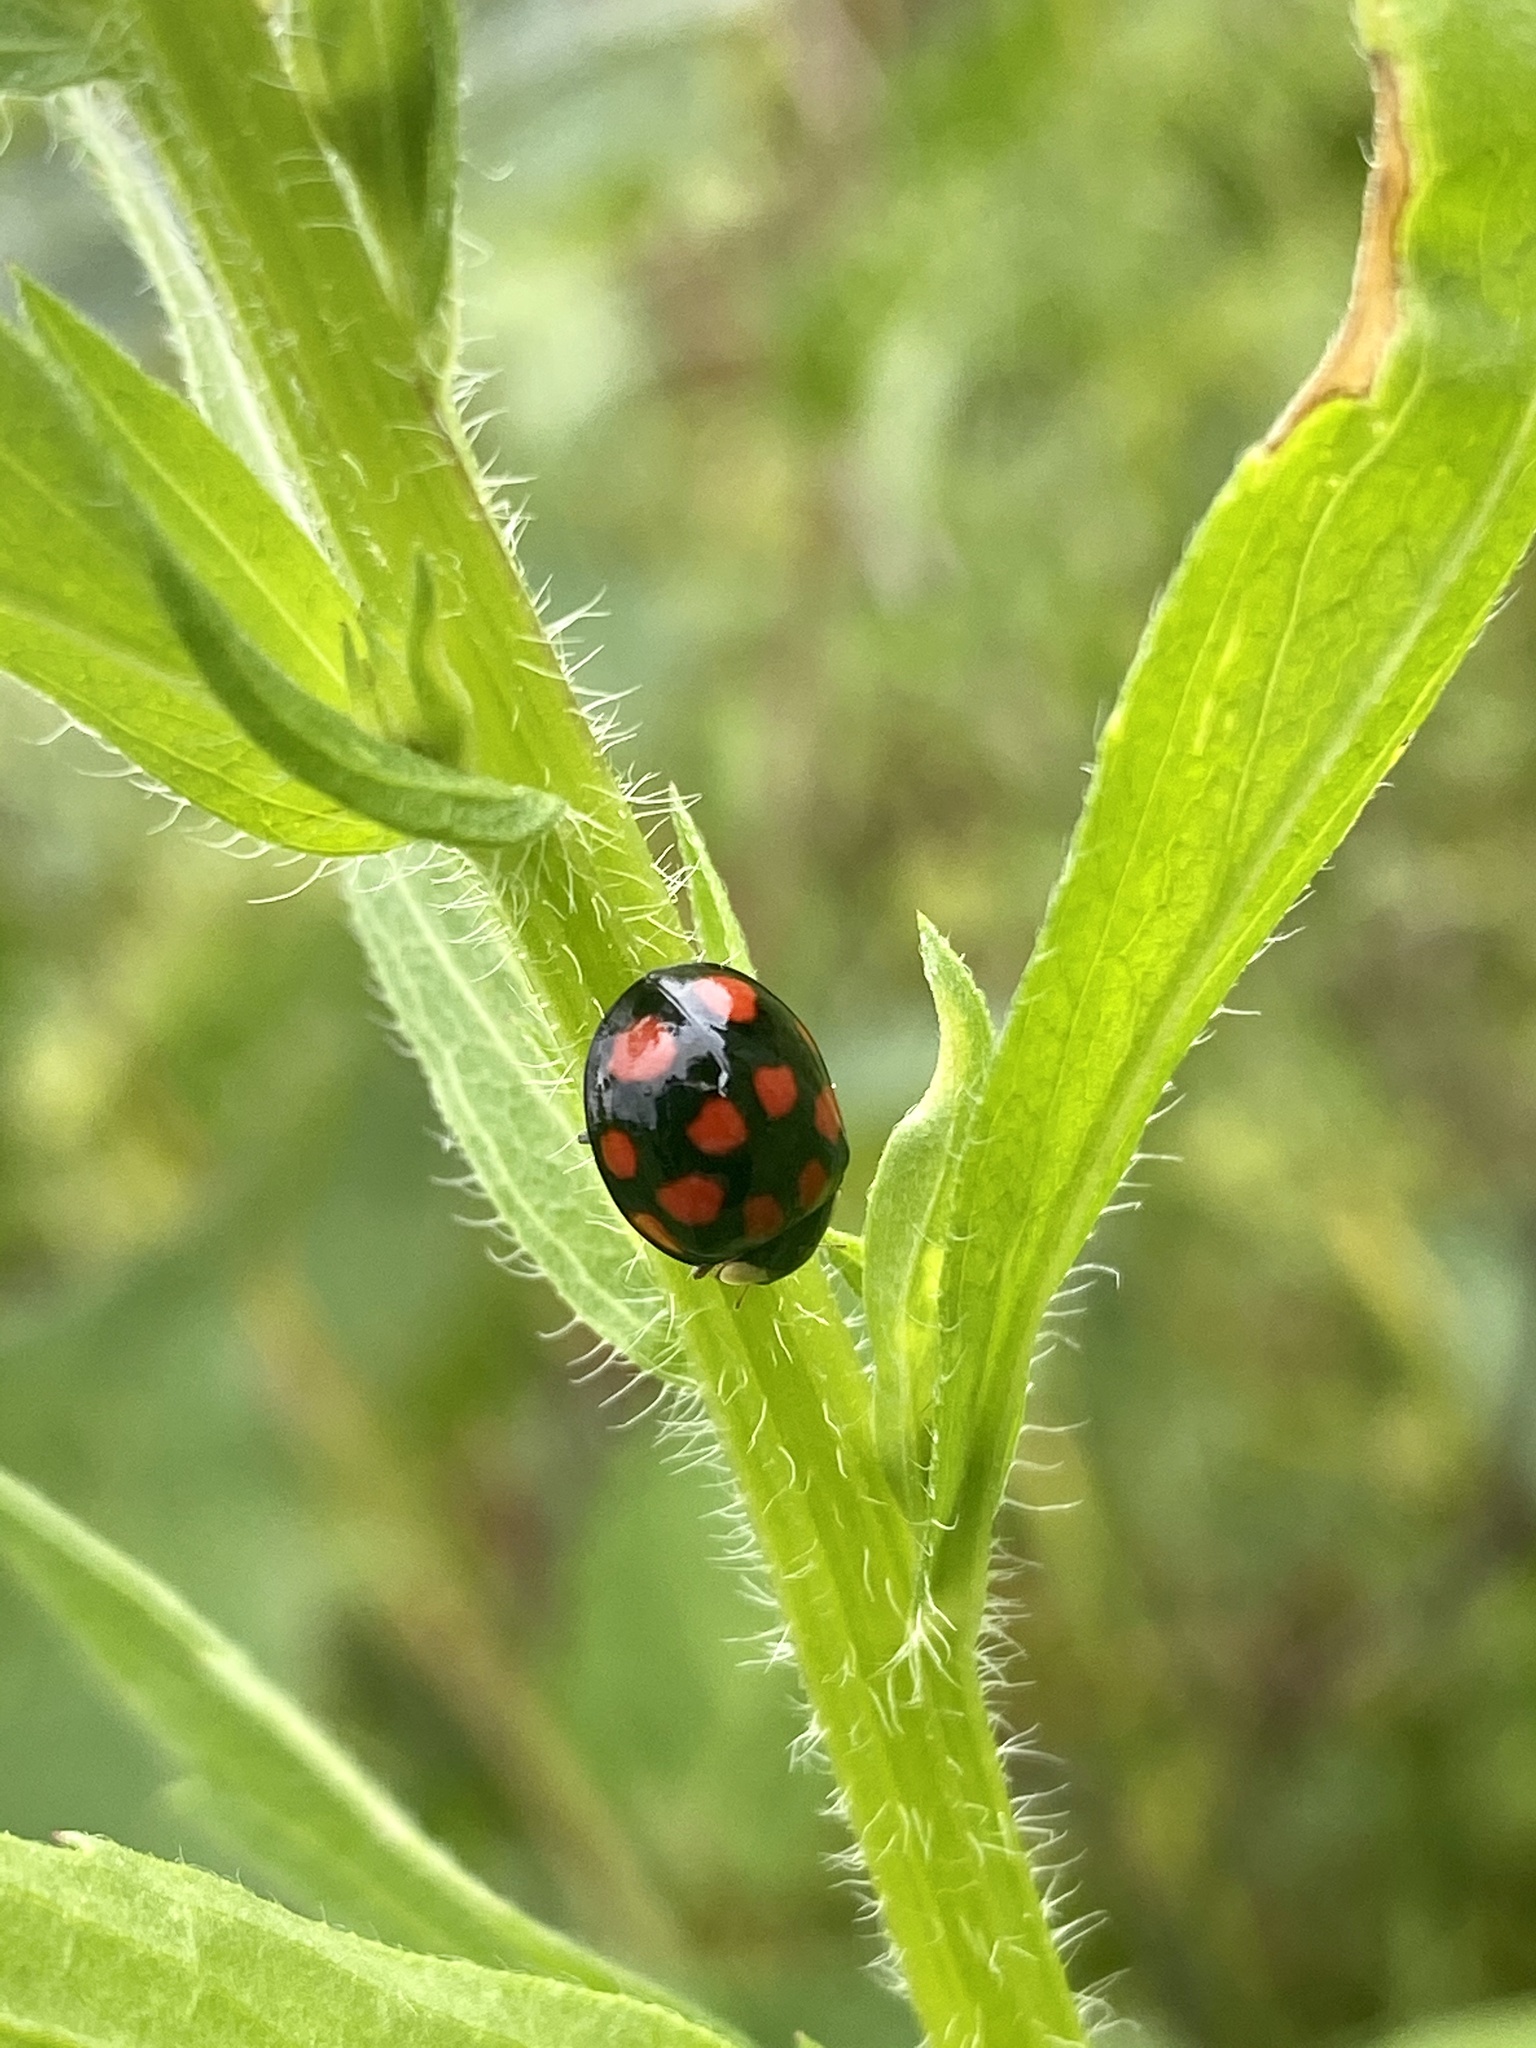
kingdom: Animalia
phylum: Arthropoda
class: Insecta
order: Coleoptera
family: Coccinellidae
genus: Harmonia
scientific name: Harmonia axyridis
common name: Harlequin ladybird
